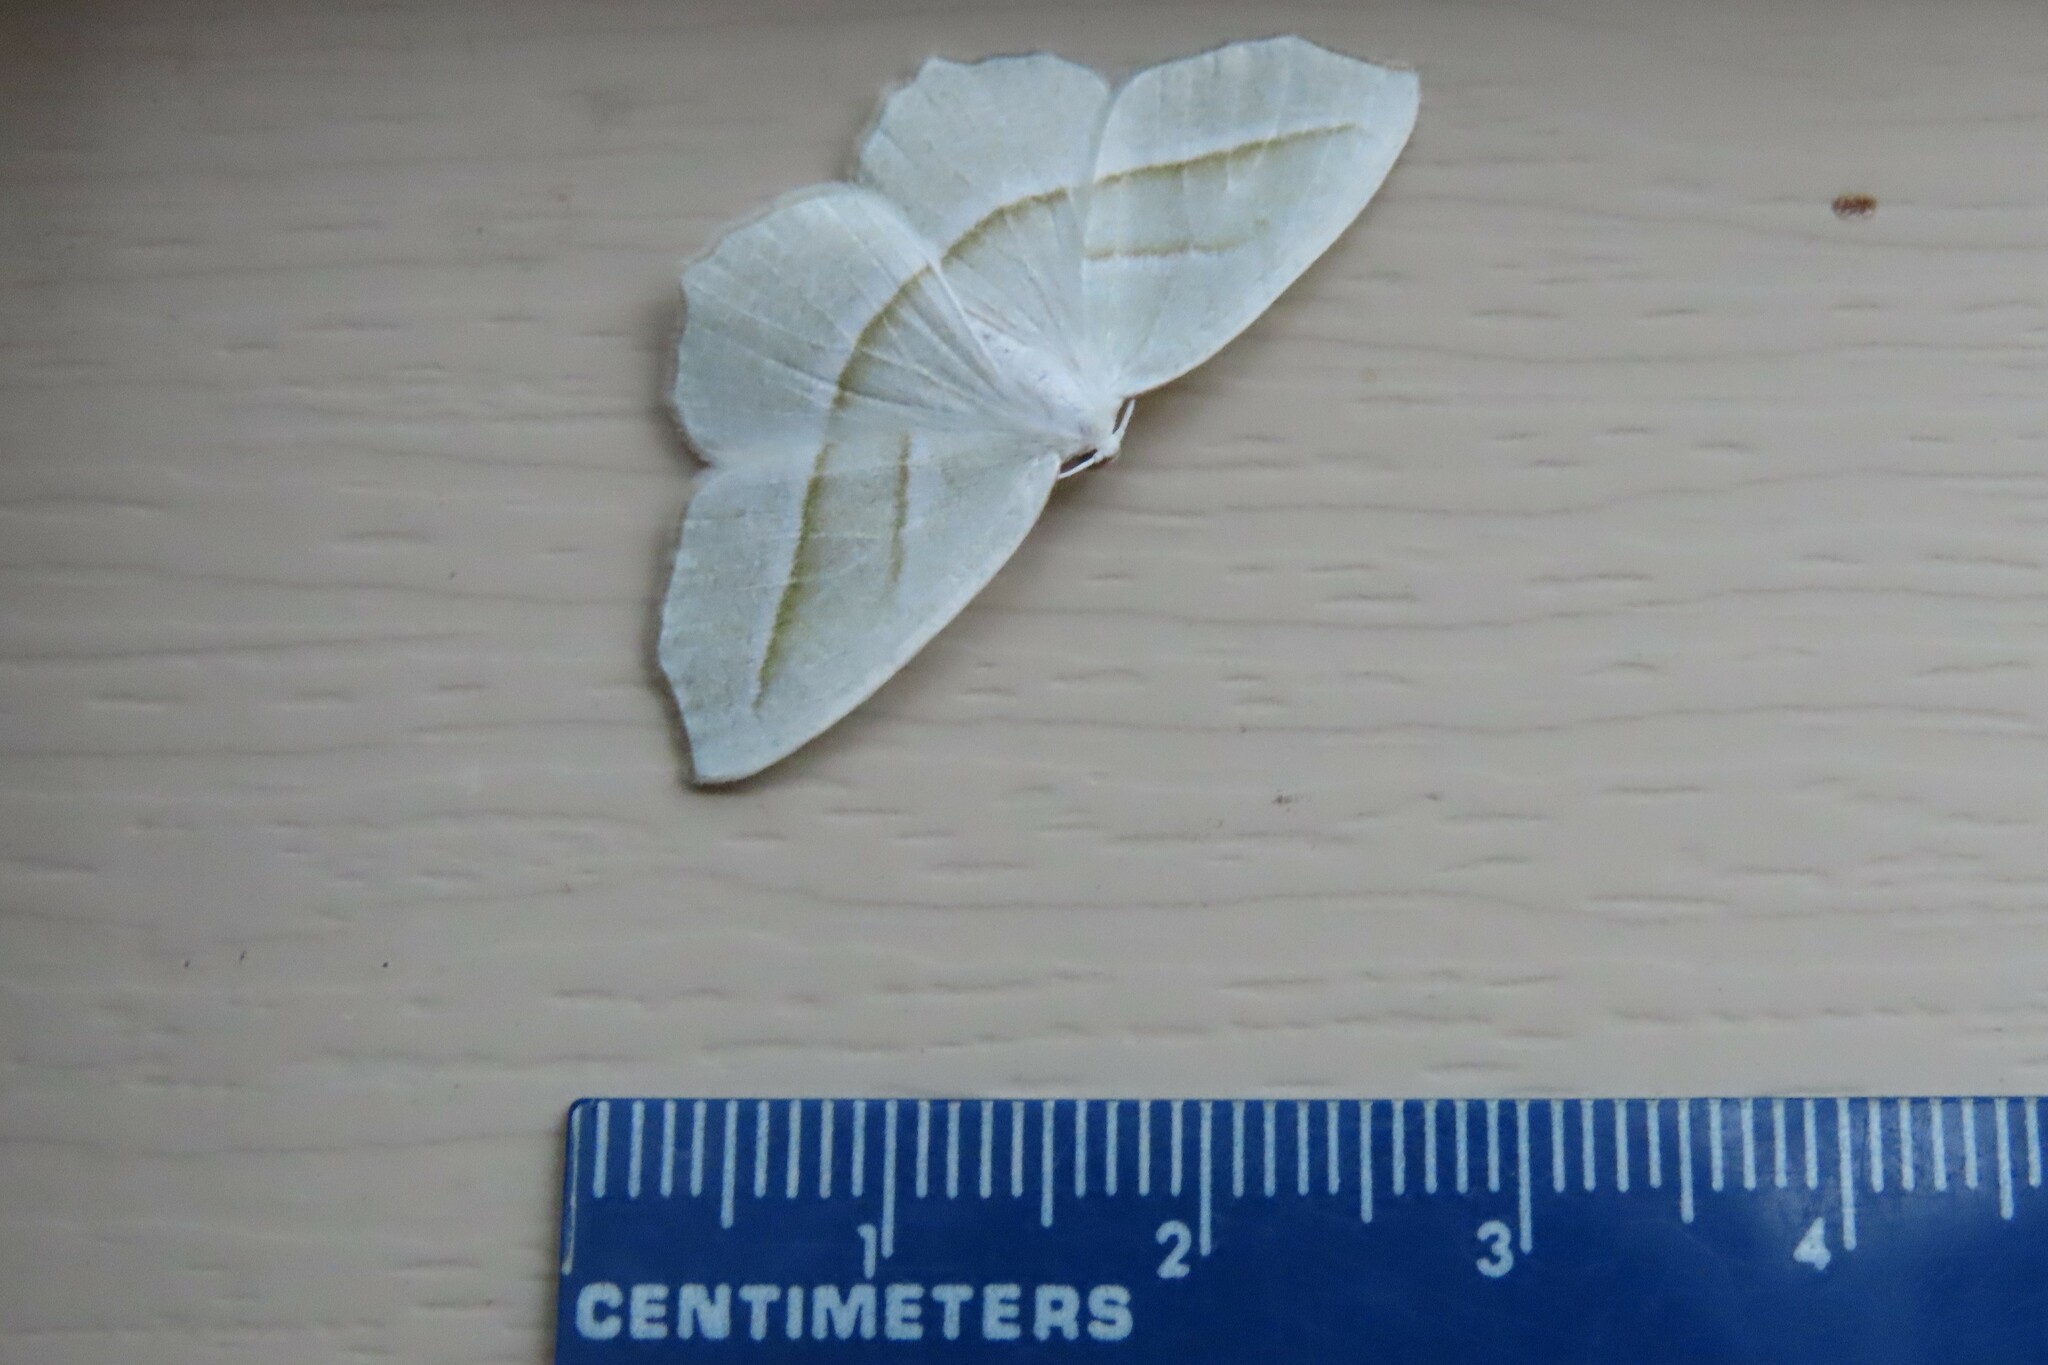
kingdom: Animalia
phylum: Arthropoda
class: Insecta
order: Lepidoptera
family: Geometridae
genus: Campaea
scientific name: Campaea perlata
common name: Fringed looper
